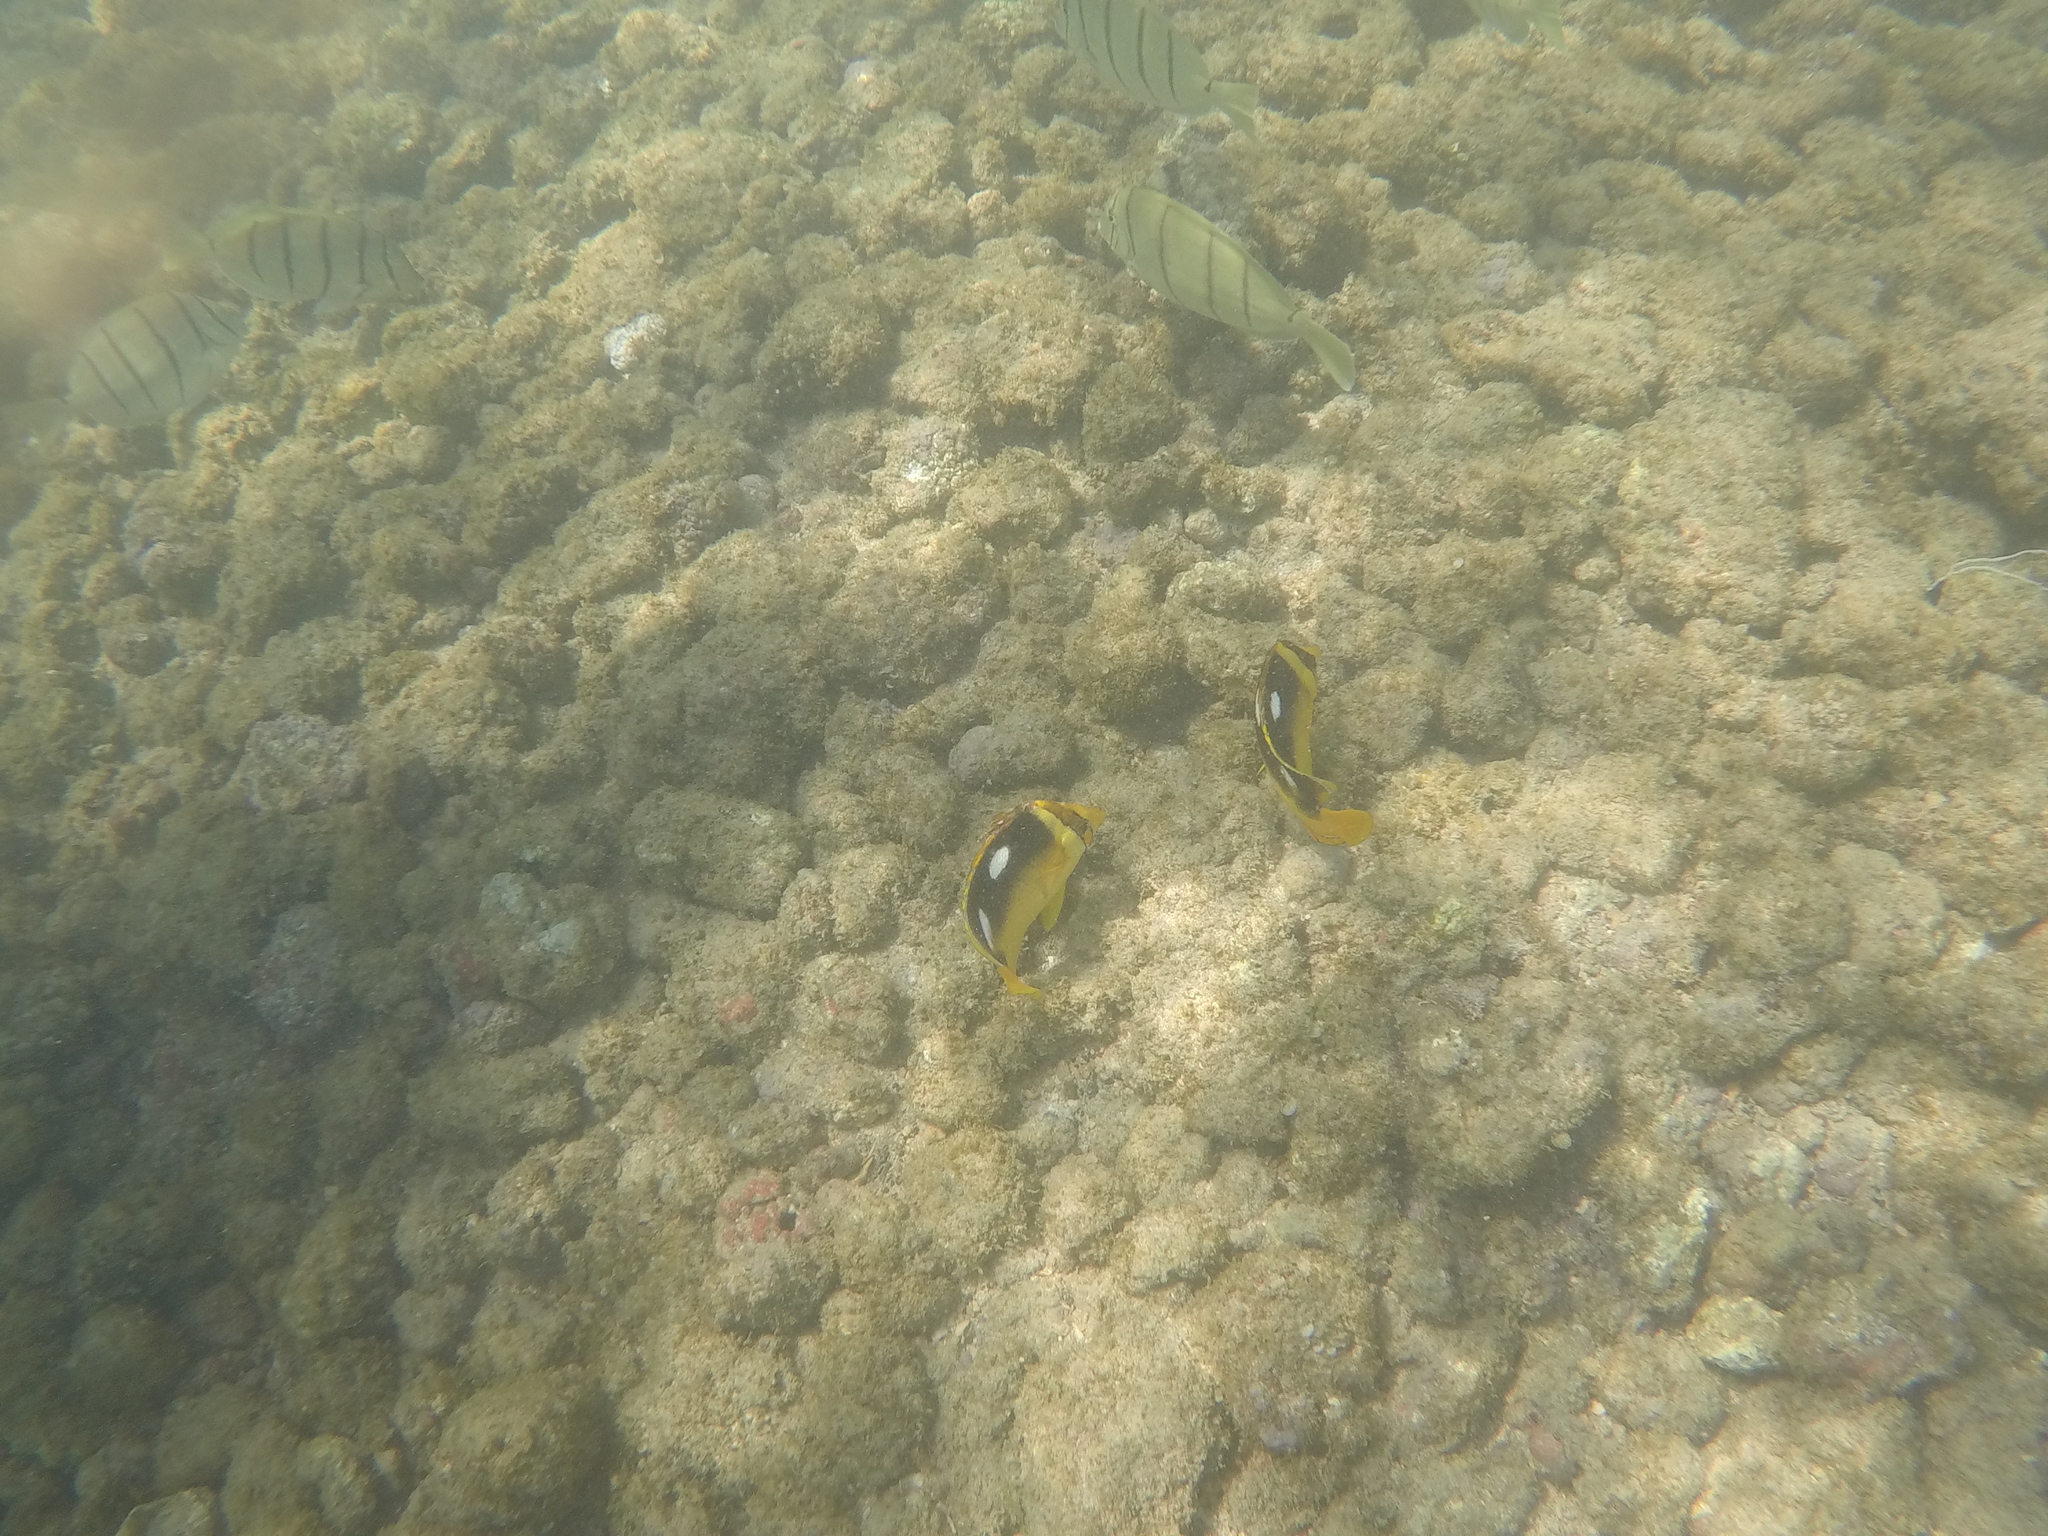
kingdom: Animalia
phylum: Chordata
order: Perciformes
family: Chaetodontidae
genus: Chaetodon
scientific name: Chaetodon quadrimaculatus
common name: Fourspot butterflyfish
